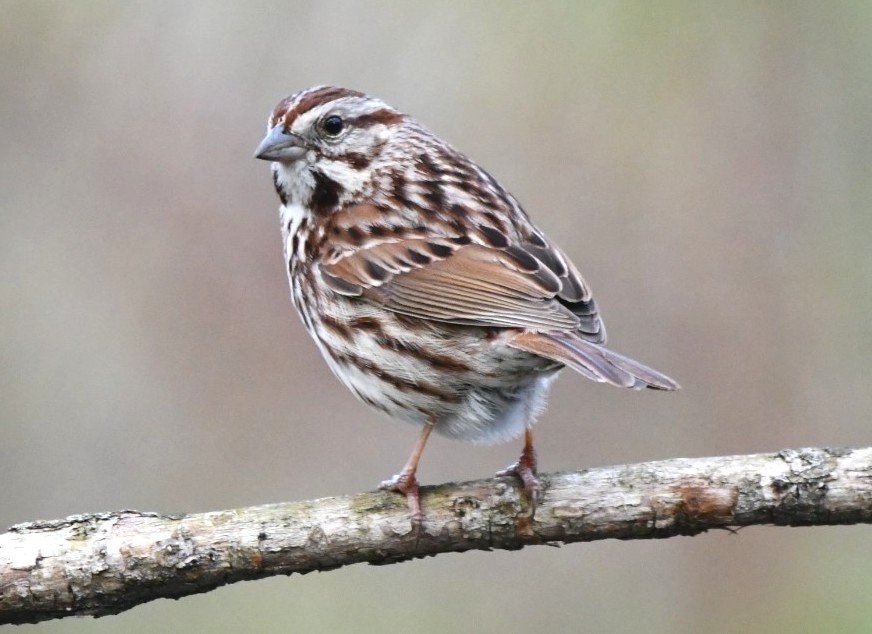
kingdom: Animalia
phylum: Chordata
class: Aves
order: Passeriformes
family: Passerellidae
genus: Melospiza
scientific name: Melospiza melodia
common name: Song sparrow
